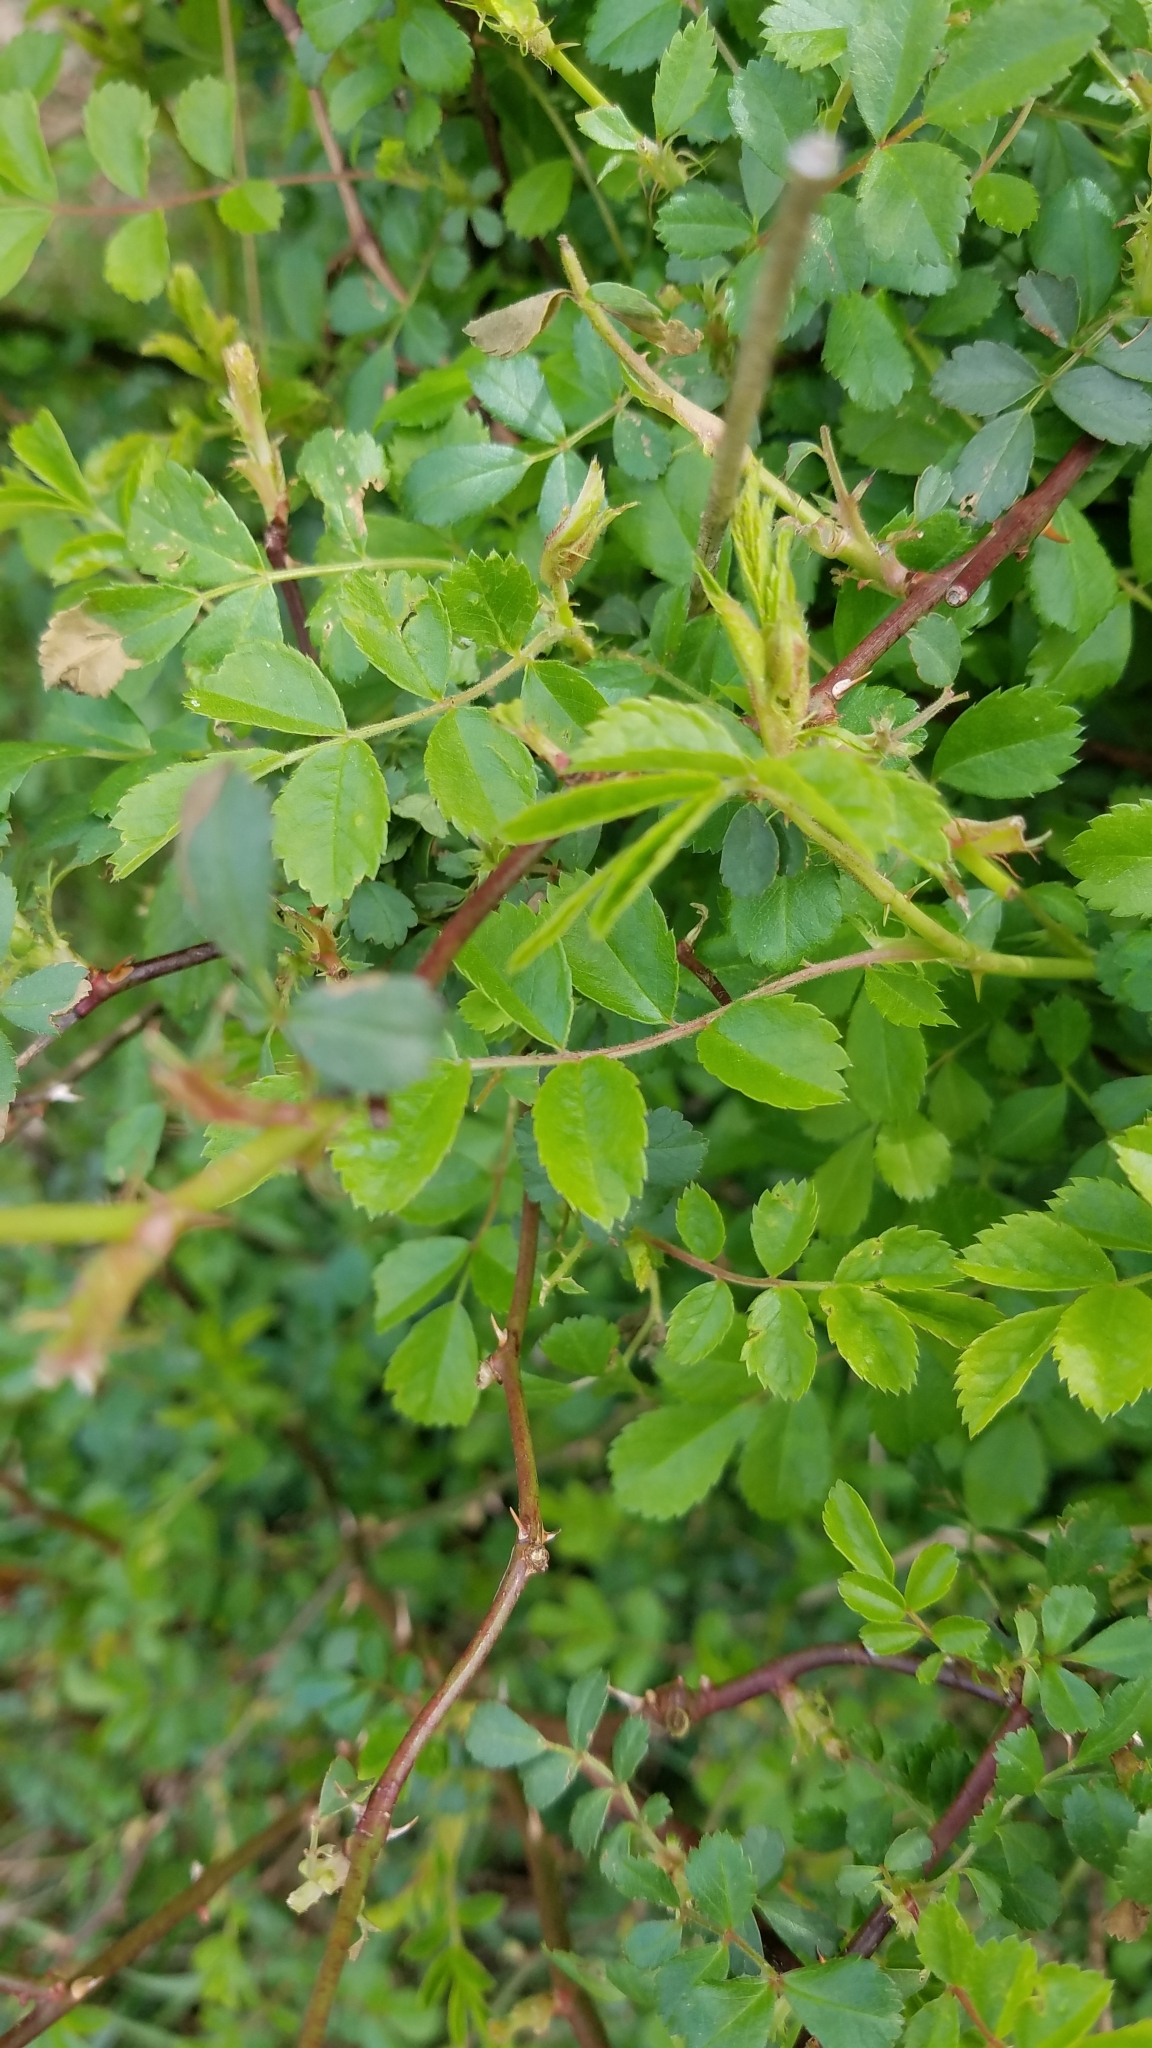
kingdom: Plantae
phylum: Tracheophyta
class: Magnoliopsida
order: Rosales
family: Rosaceae
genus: Rosa
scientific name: Rosa multiflora
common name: Multiflora rose
